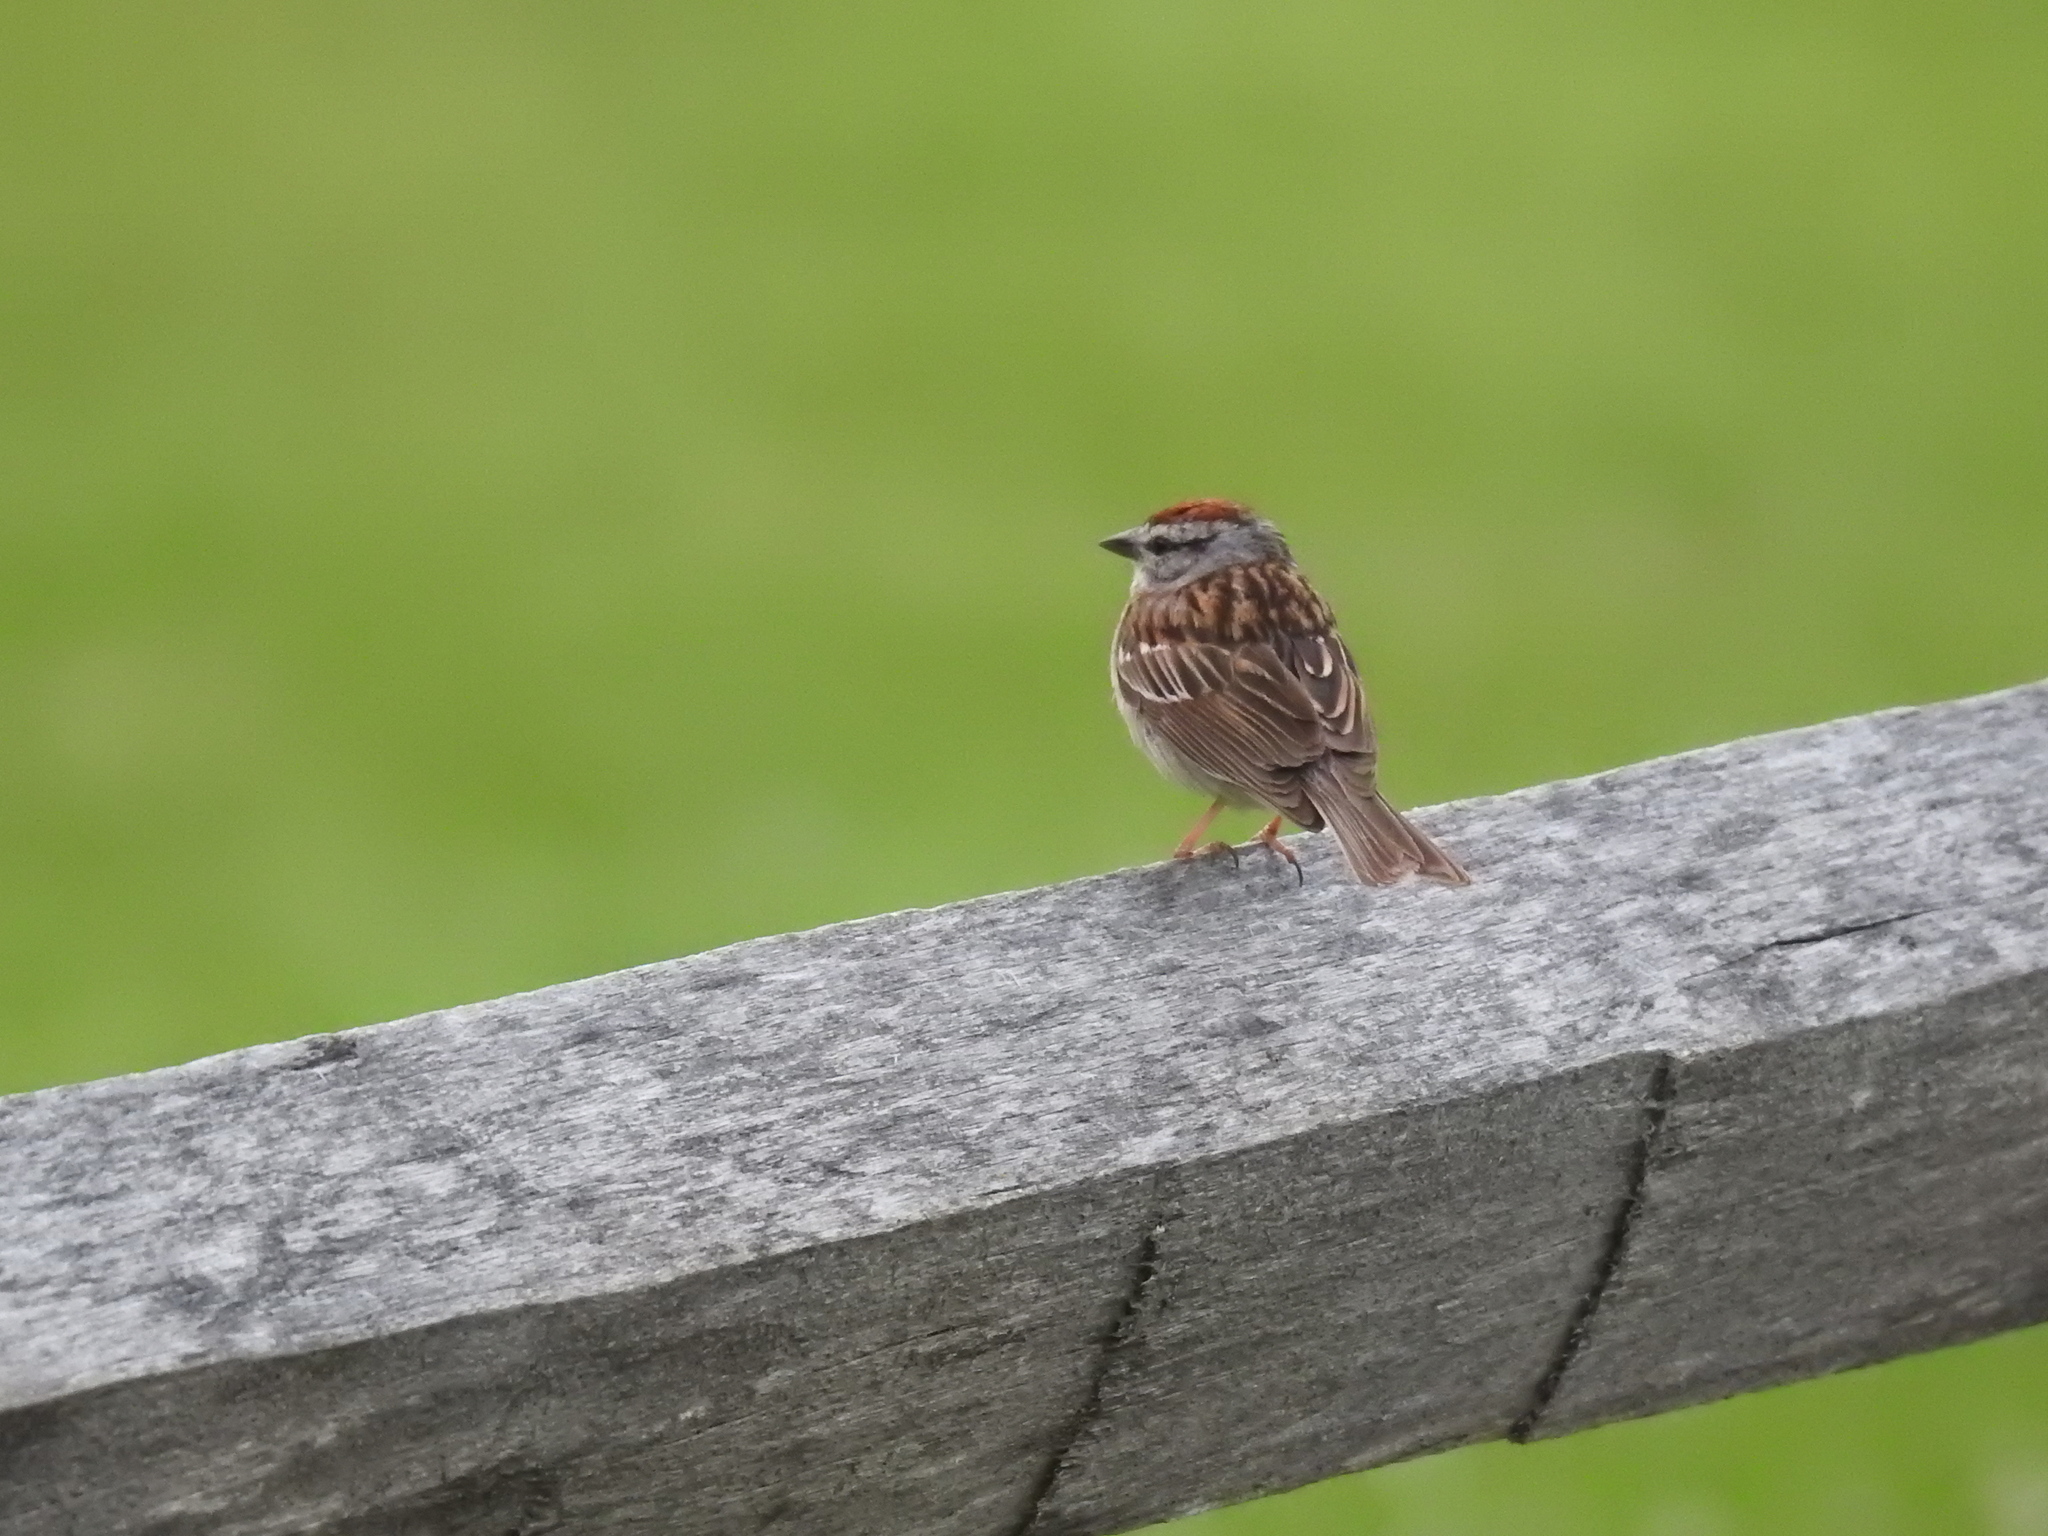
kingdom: Animalia
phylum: Chordata
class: Aves
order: Passeriformes
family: Passerellidae
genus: Spizella
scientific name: Spizella passerina
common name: Chipping sparrow
